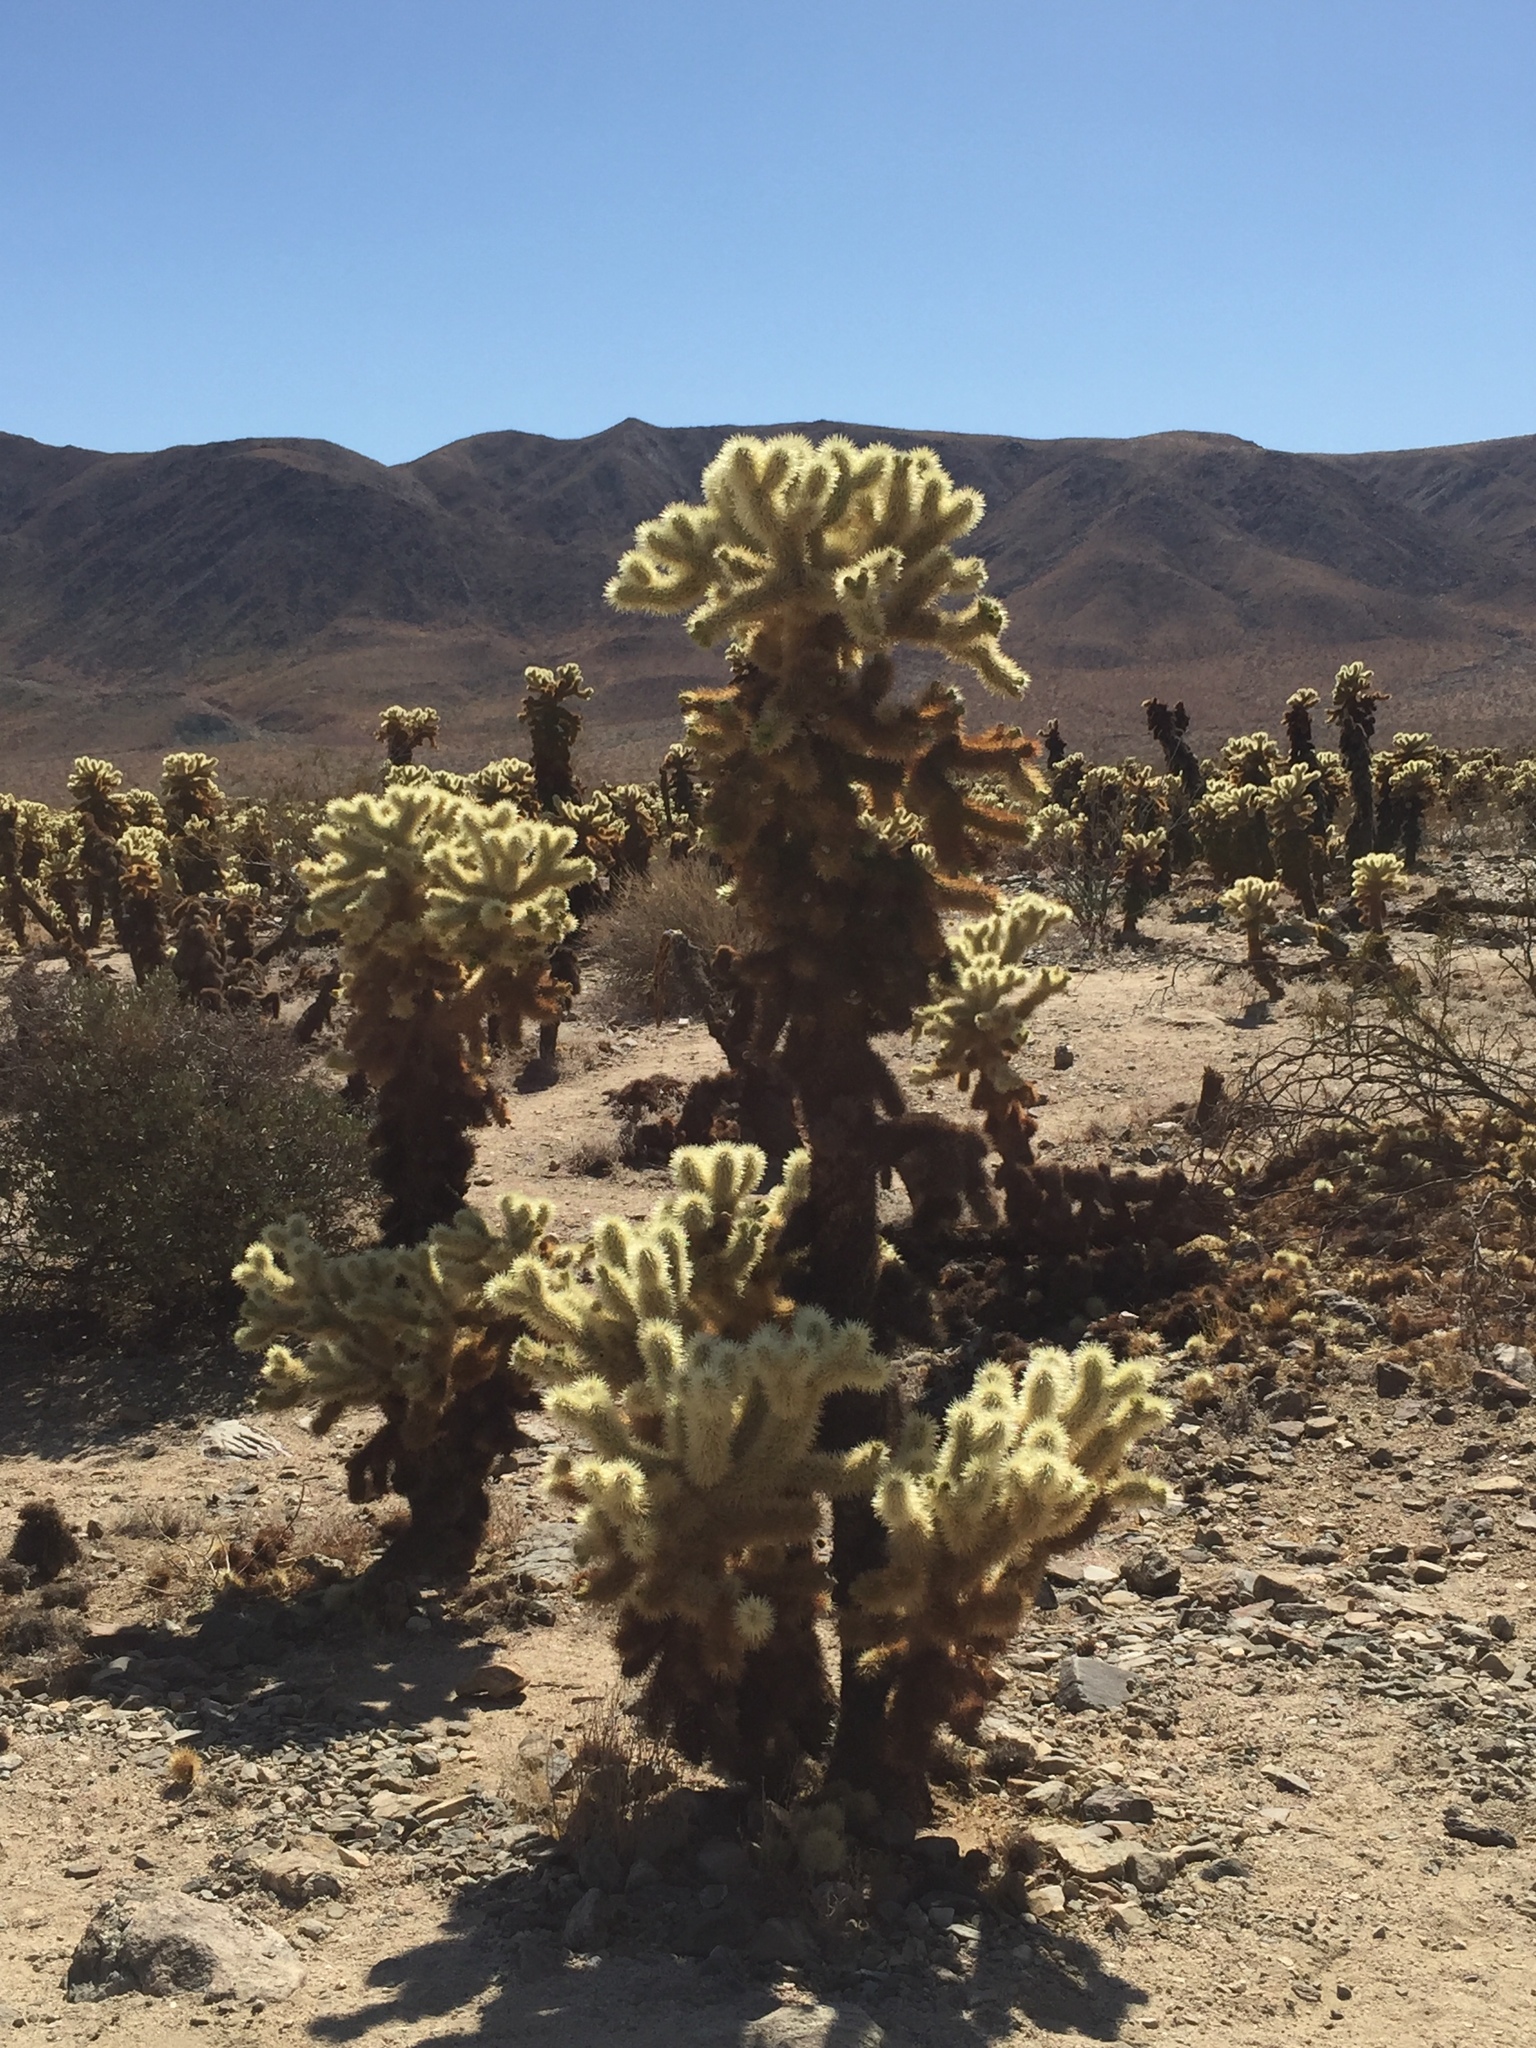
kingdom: Plantae
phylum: Tracheophyta
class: Magnoliopsida
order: Caryophyllales
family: Cactaceae
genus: Cylindropuntia
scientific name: Cylindropuntia fosbergii
